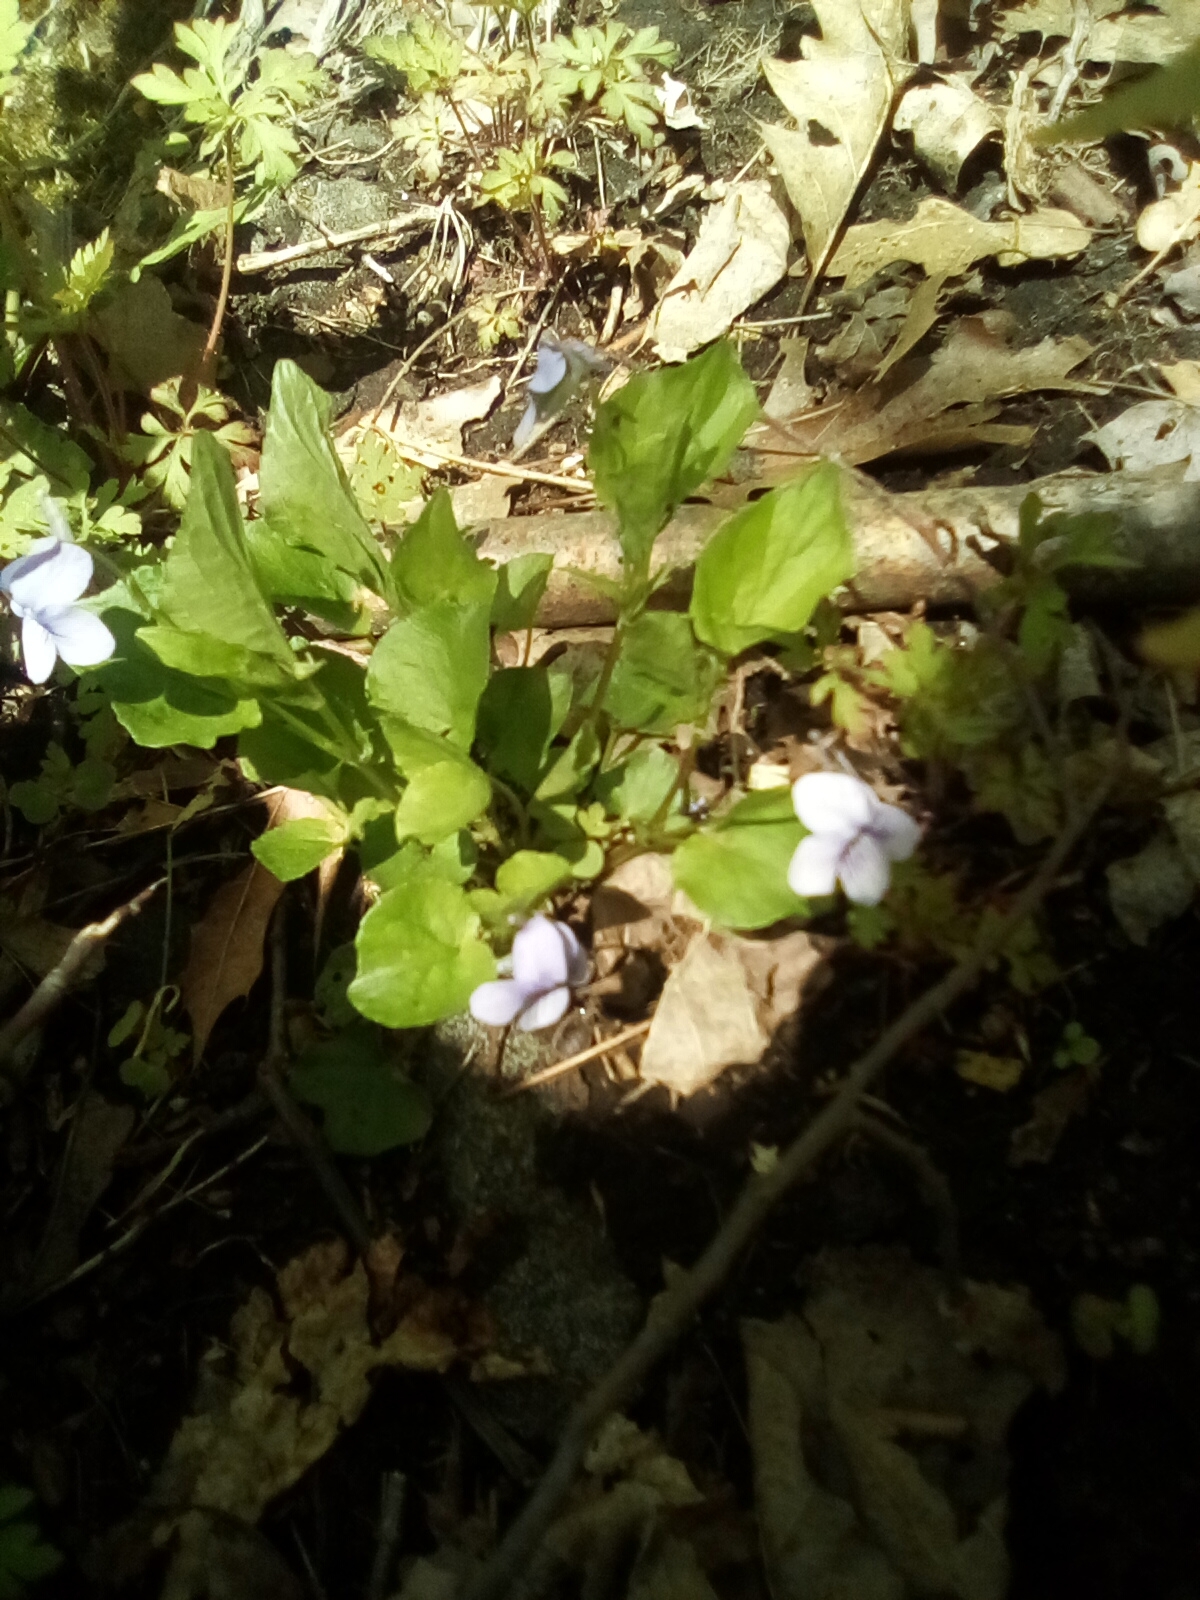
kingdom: Plantae
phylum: Tracheophyta
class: Magnoliopsida
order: Malpighiales
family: Violaceae
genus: Viola
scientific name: Viola rostrata
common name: Long-spur violet
